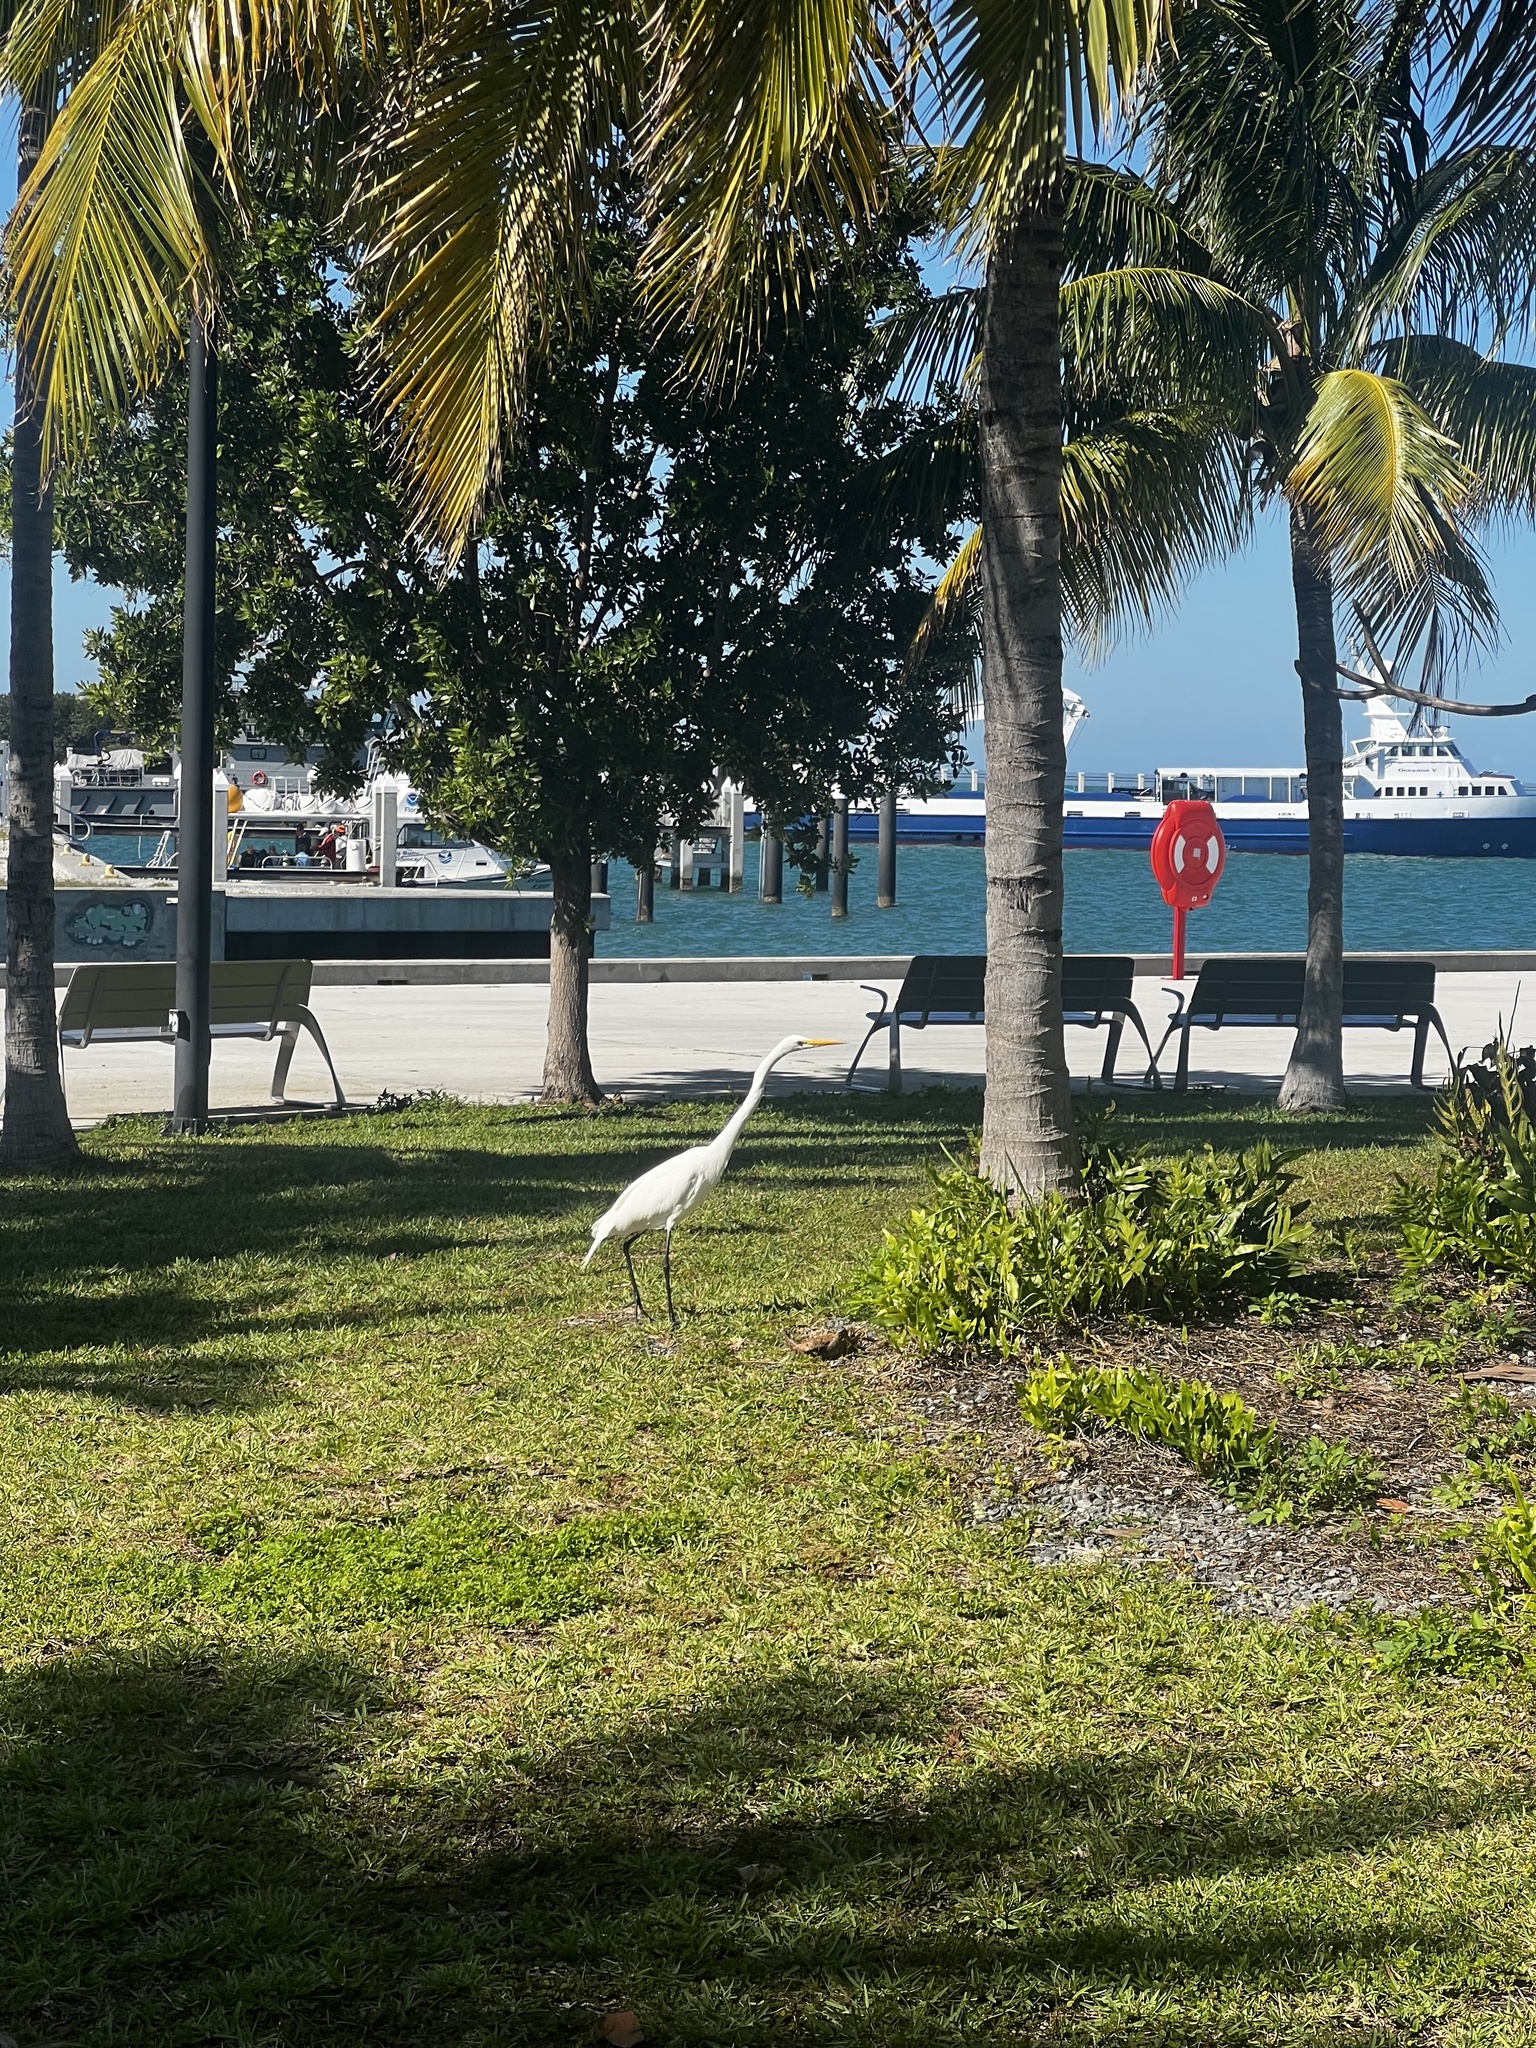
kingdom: Animalia
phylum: Chordata
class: Aves
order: Pelecaniformes
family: Ardeidae
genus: Ardea
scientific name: Ardea alba
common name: Great egret
